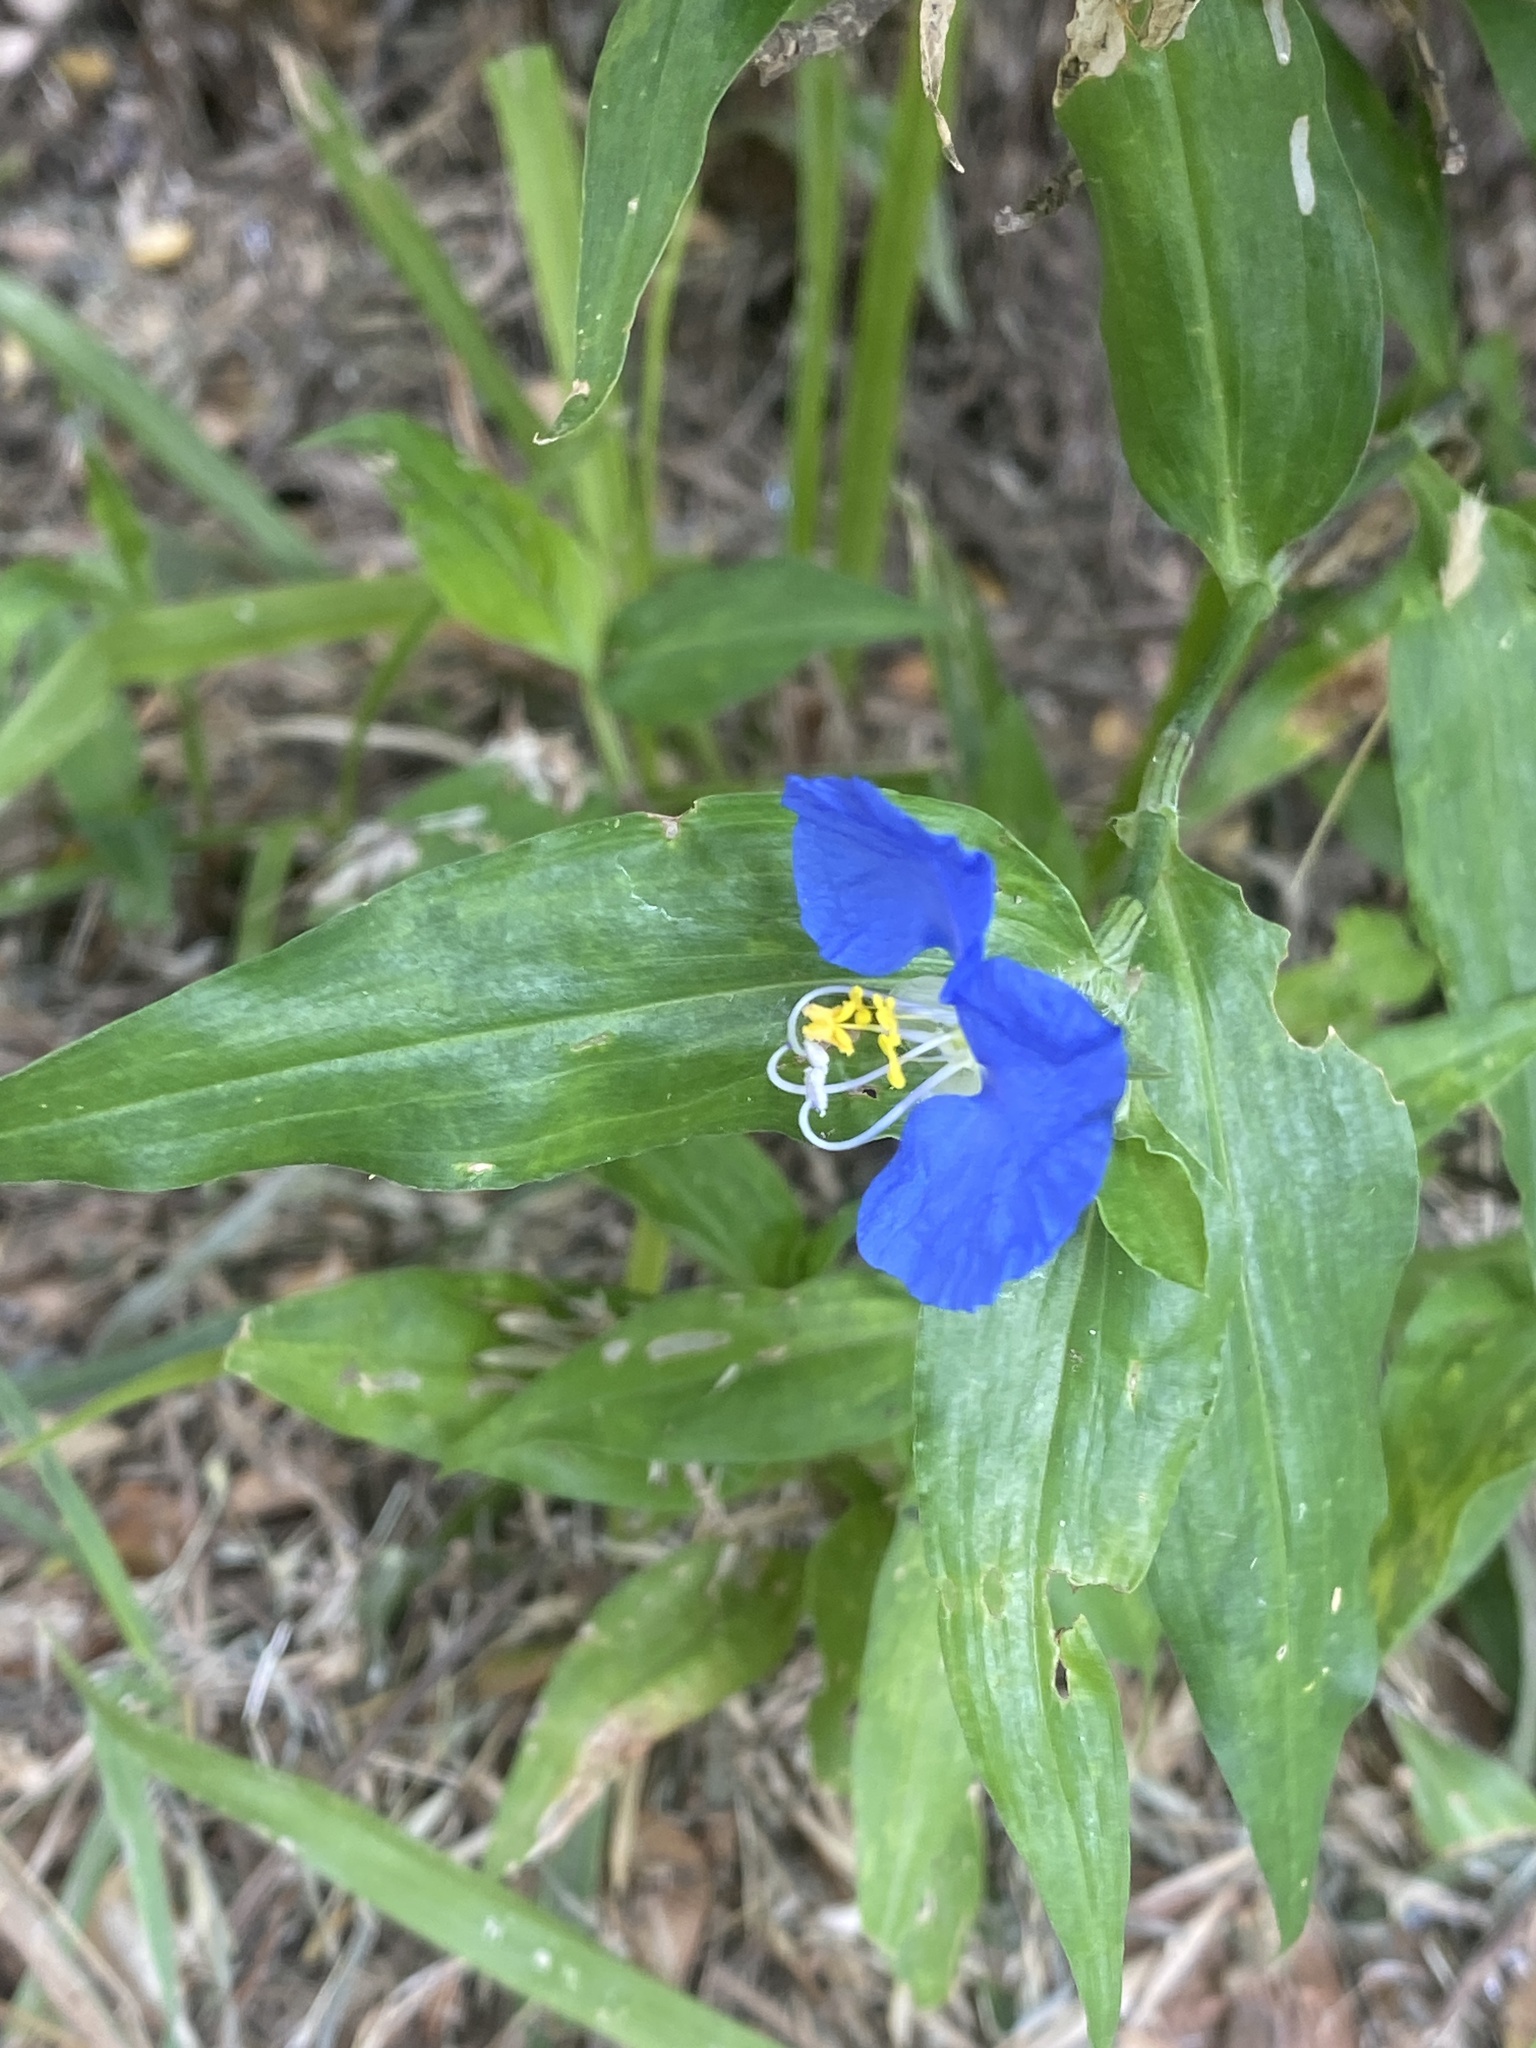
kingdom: Plantae
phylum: Tracheophyta
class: Liliopsida
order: Commelinales
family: Commelinaceae
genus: Commelina
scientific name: Commelina erecta
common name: Blousel blommetjie
